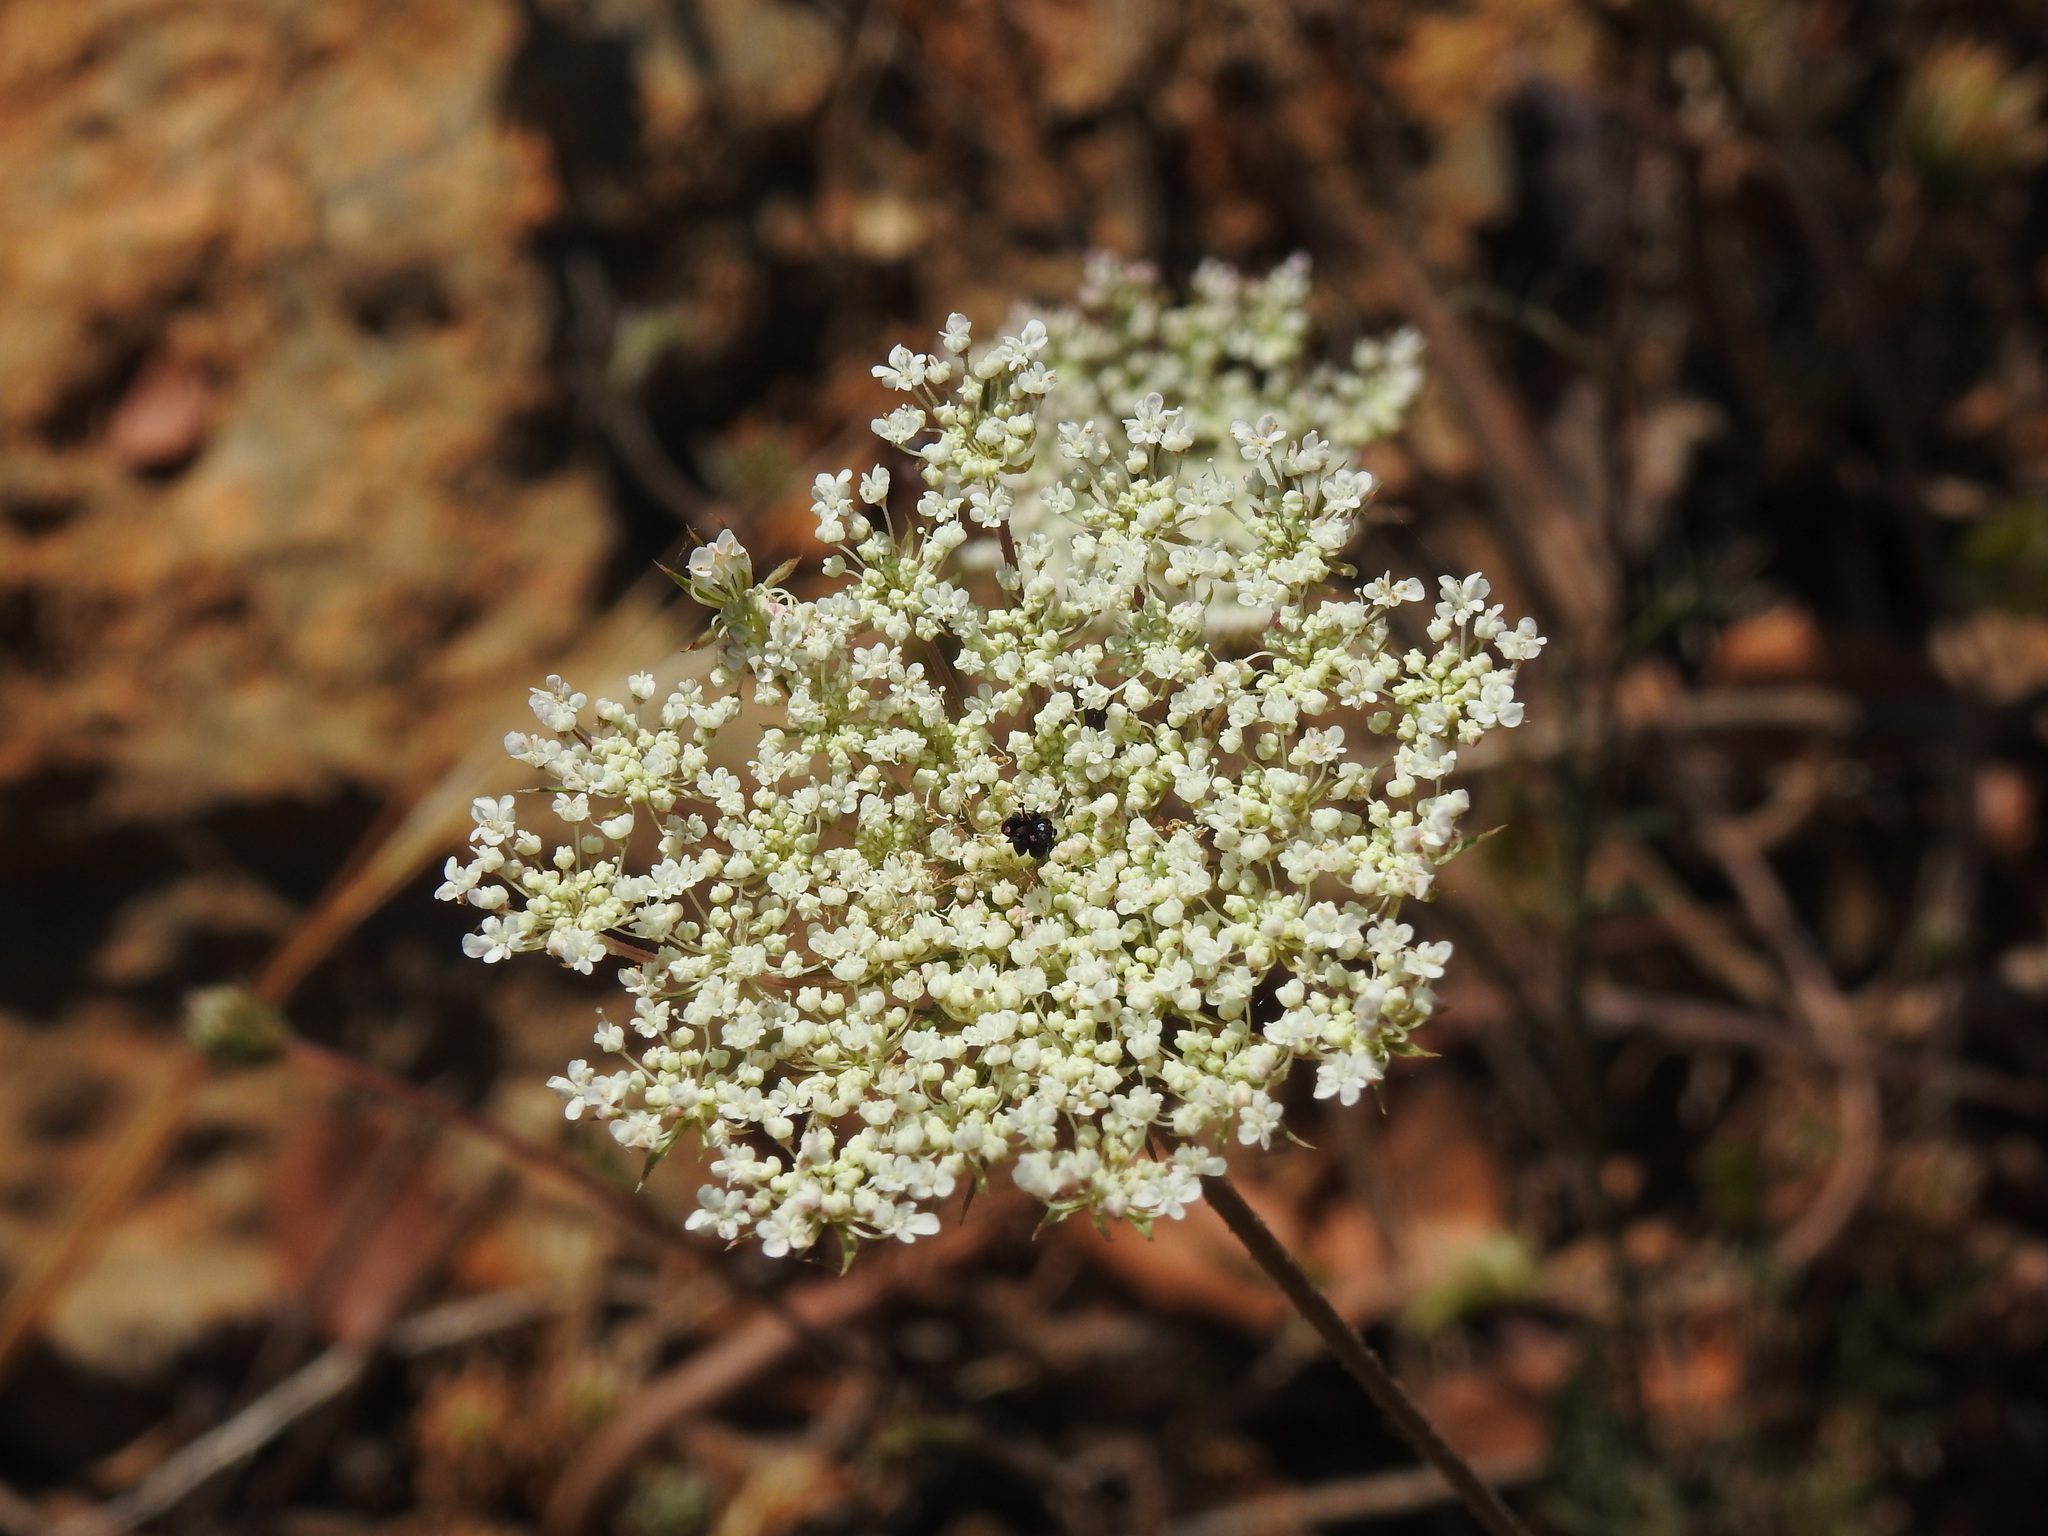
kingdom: Plantae
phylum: Tracheophyta
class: Magnoliopsida
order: Apiales
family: Apiaceae
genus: Daucus
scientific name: Daucus carota
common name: Wild carrot
